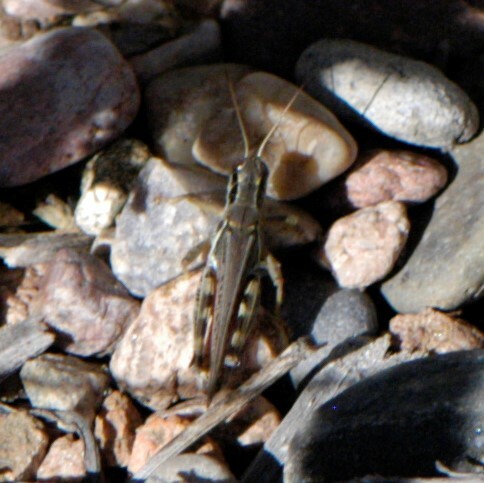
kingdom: Animalia
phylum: Arthropoda
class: Insecta
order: Orthoptera
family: Acrididae
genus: Melanoplus
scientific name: Melanoplus sanguinipes
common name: Migratory grasshopper
